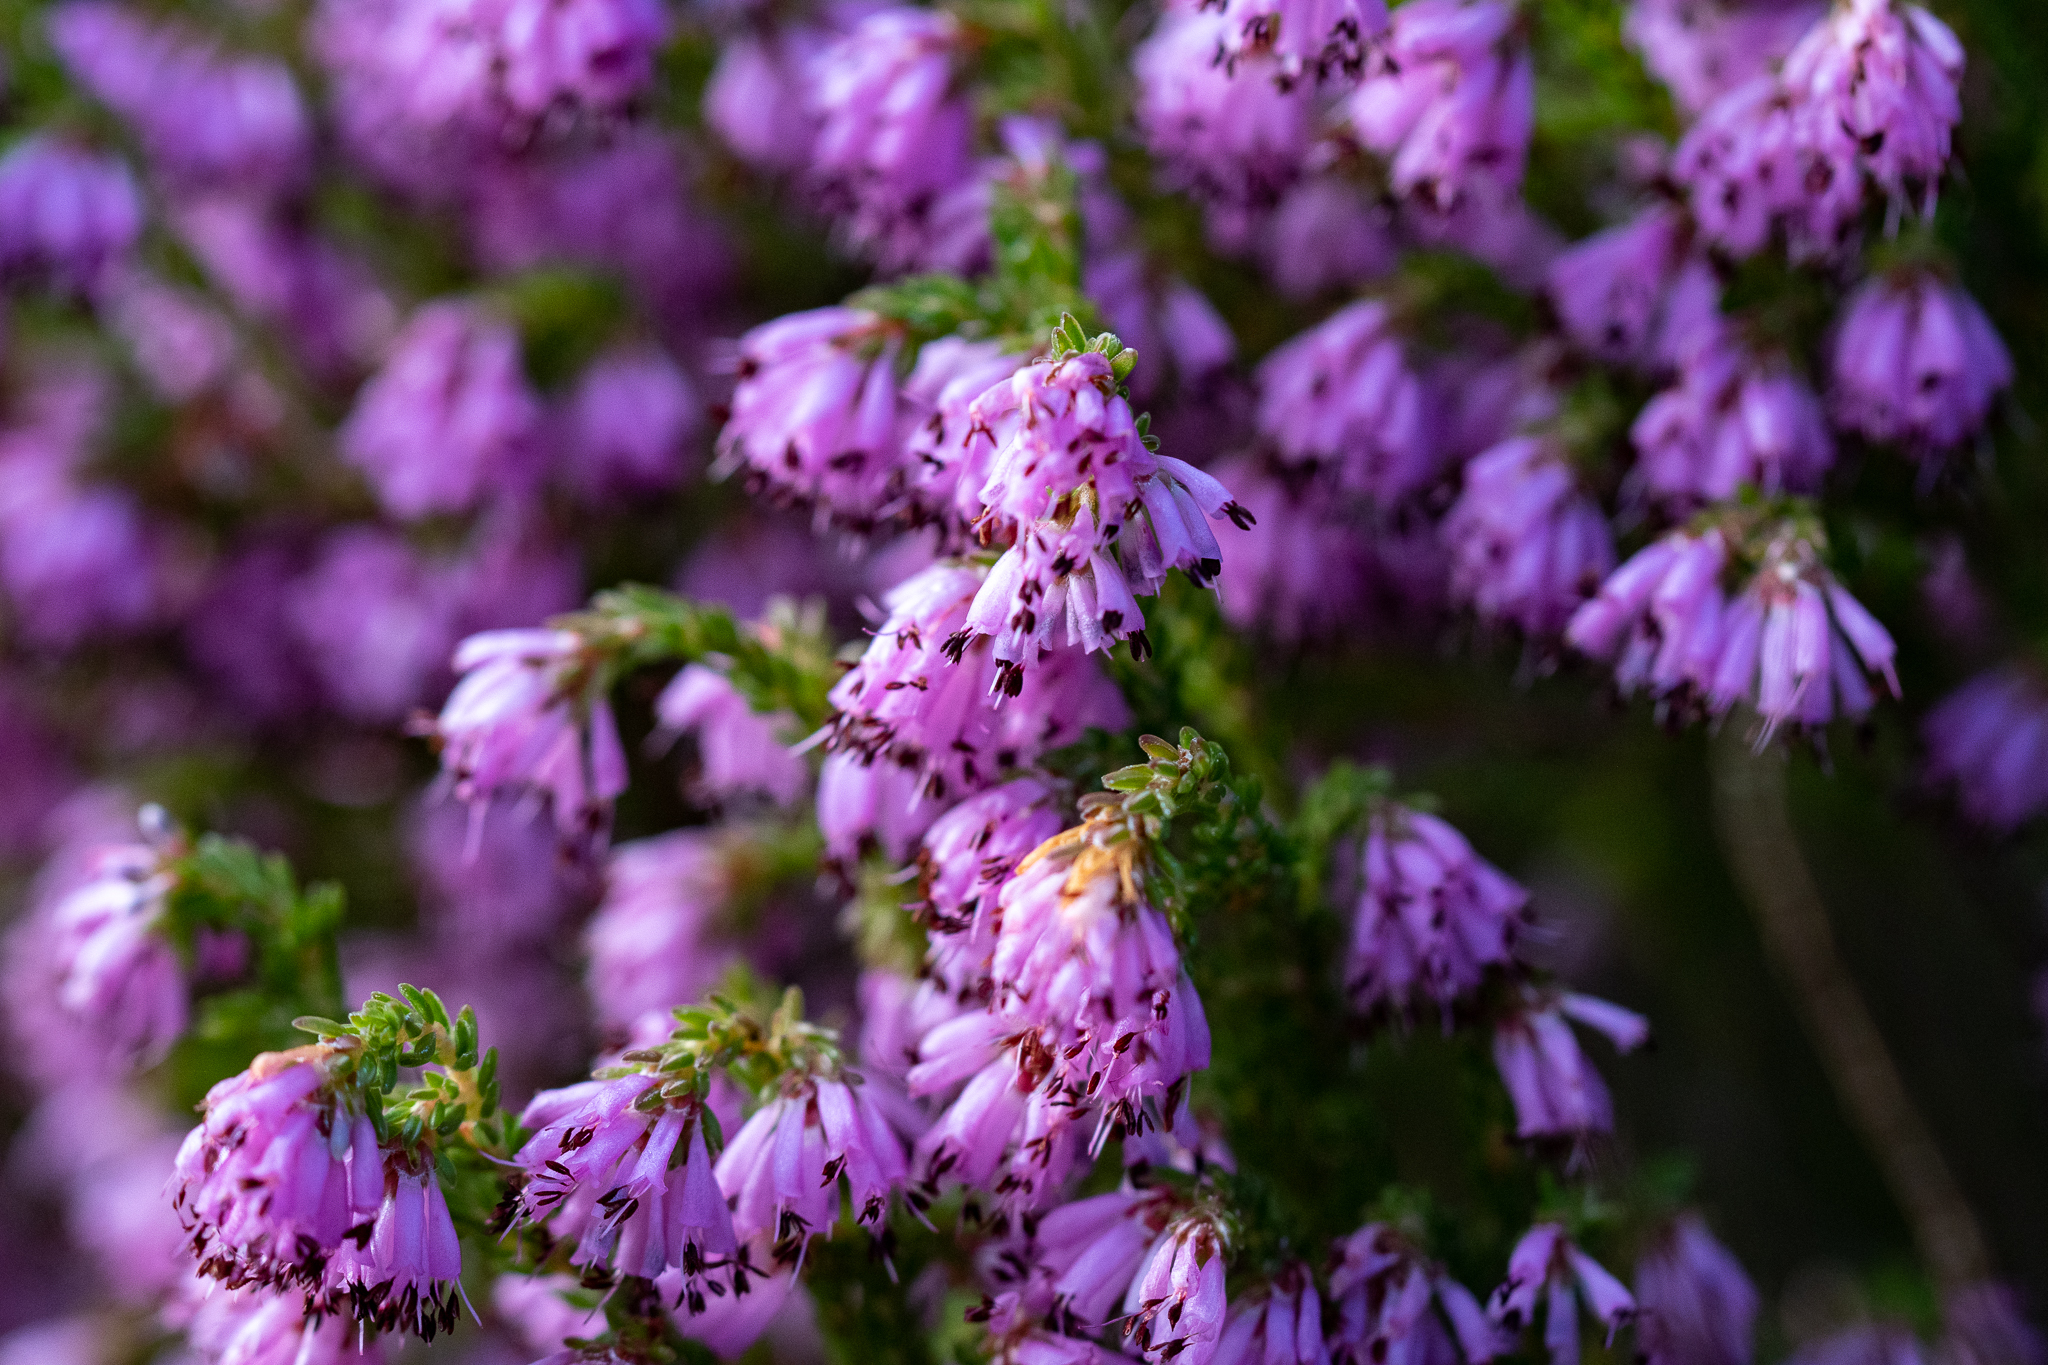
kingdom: Plantae
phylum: Tracheophyta
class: Magnoliopsida
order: Ericales
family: Ericaceae
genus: Erica
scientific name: Erica labialis
